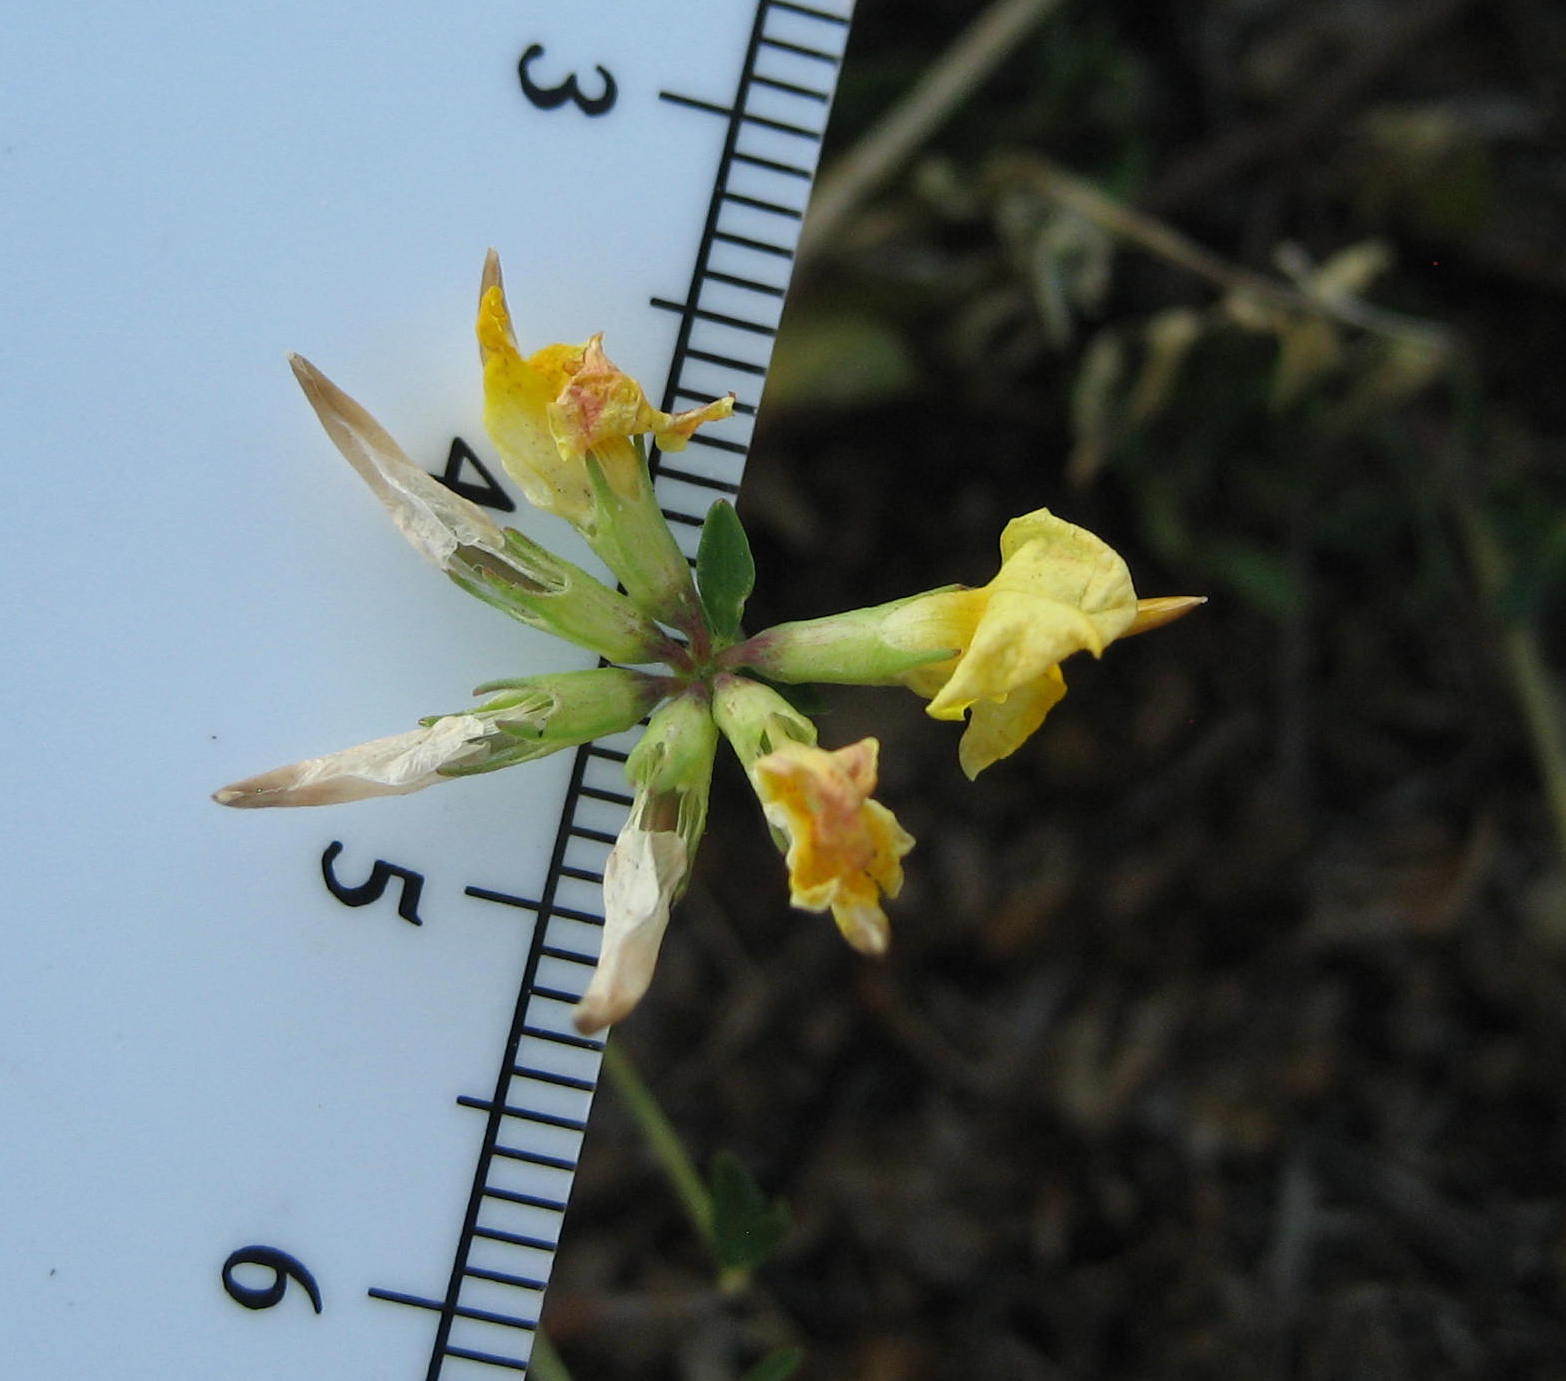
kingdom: Plantae
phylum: Tracheophyta
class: Magnoliopsida
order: Fabales
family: Fabaceae
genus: Lotus
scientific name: Lotus corniculatus
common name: Common bird's-foot-trefoil
